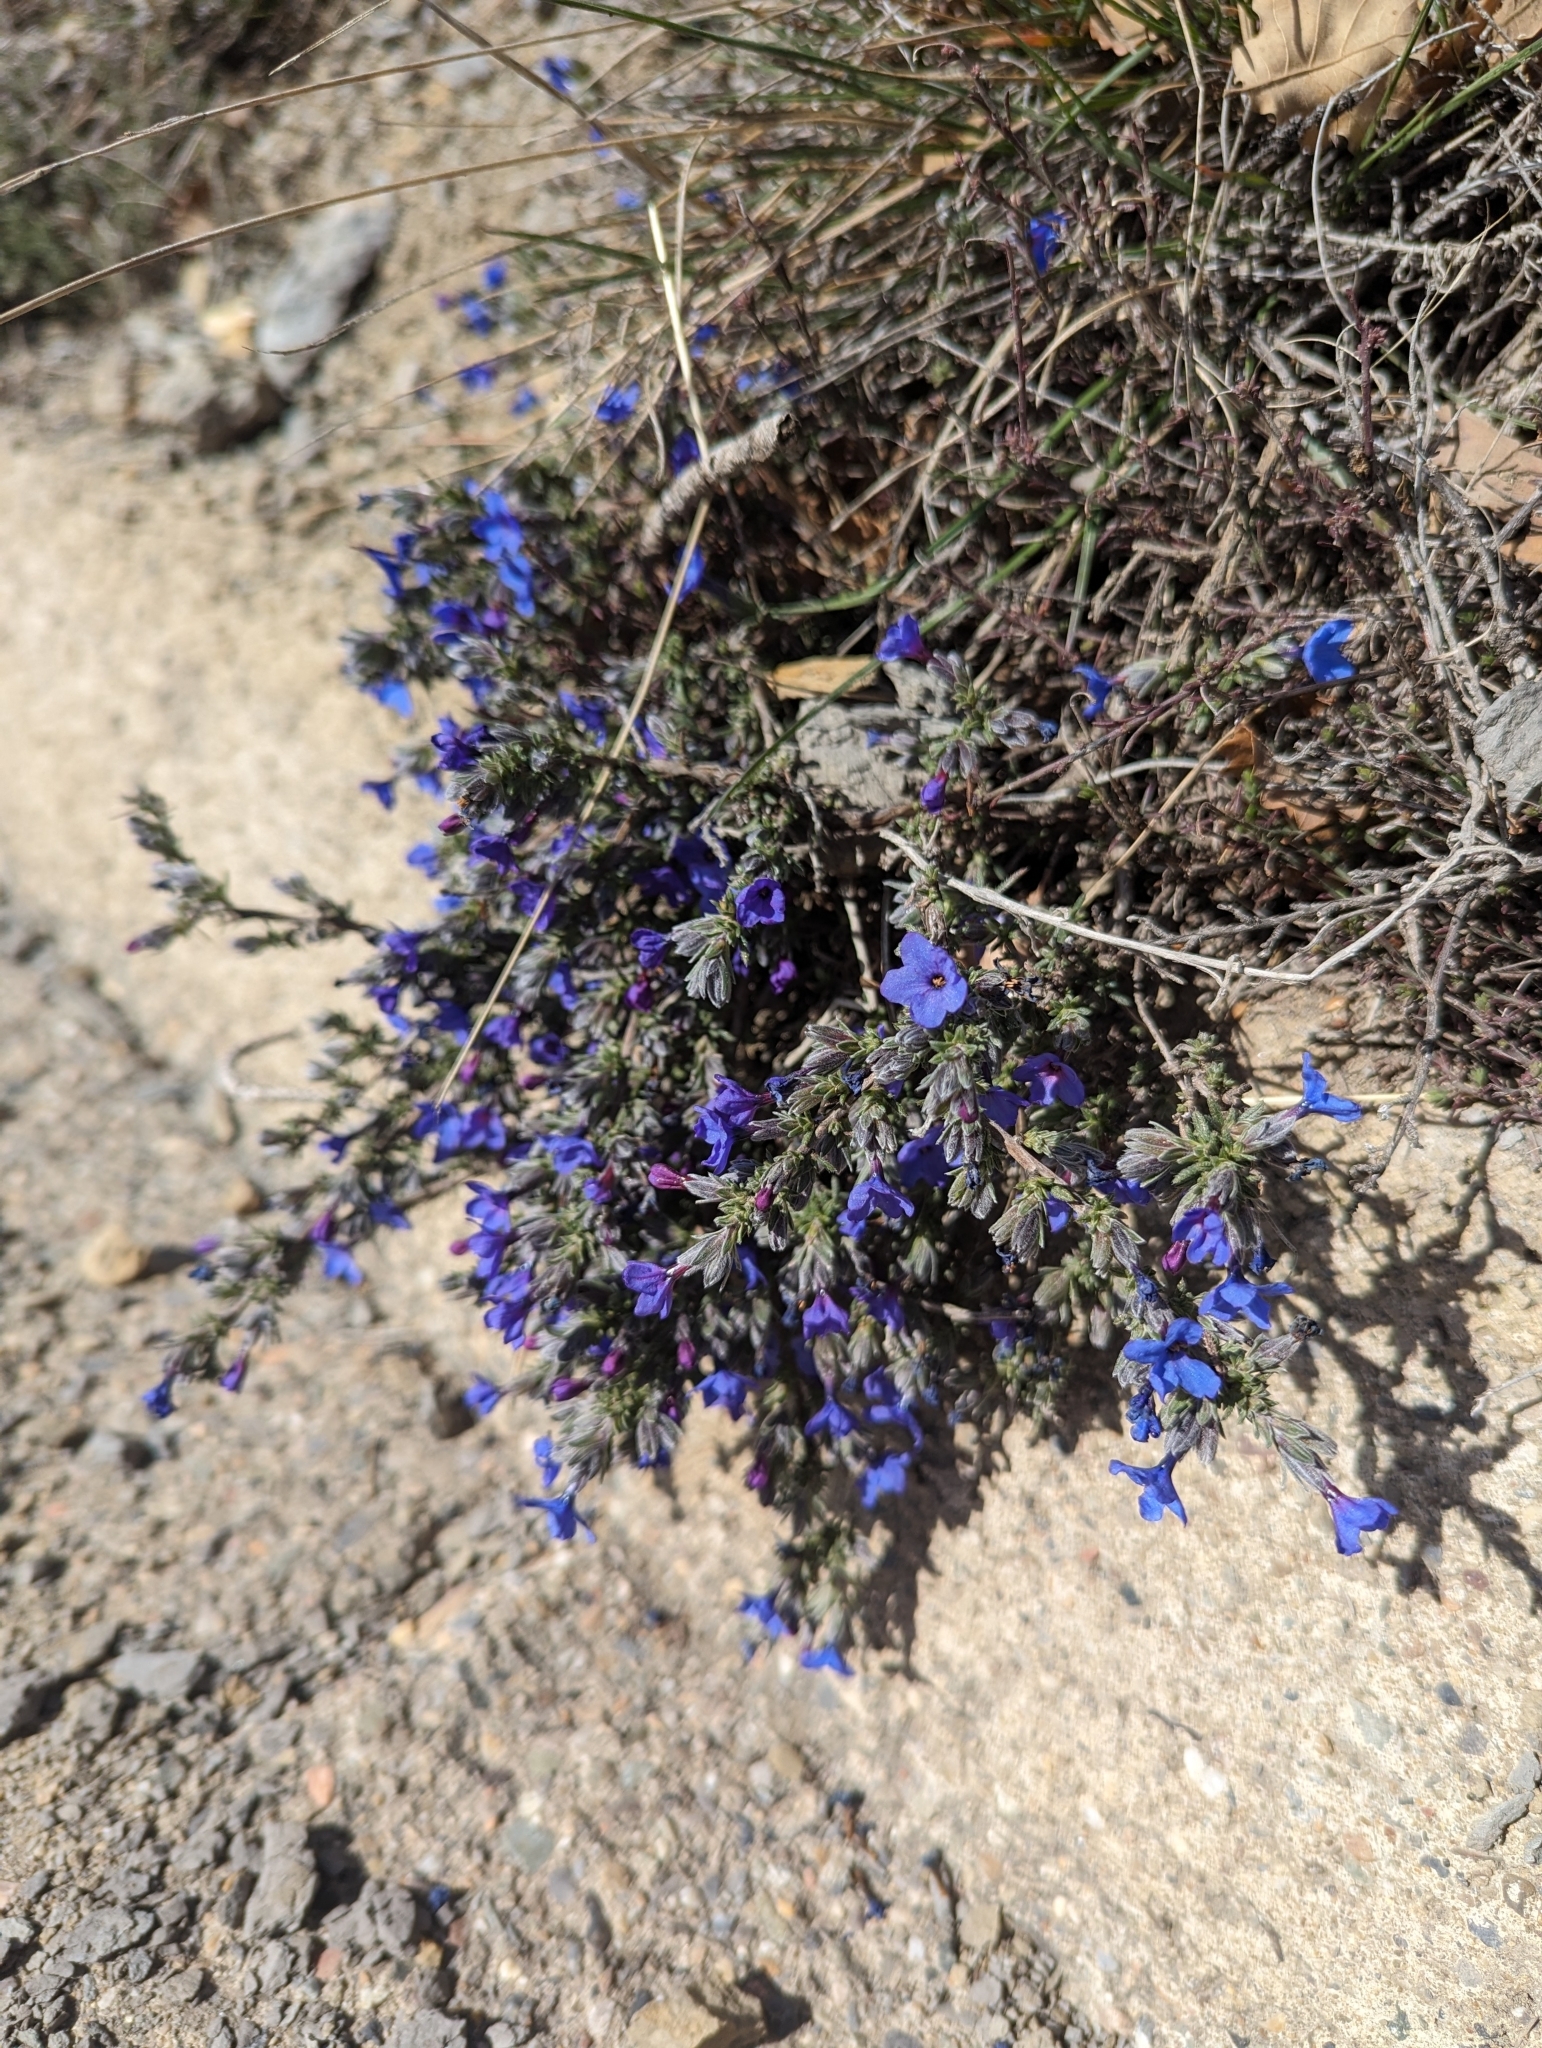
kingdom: Plantae
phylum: Tracheophyta
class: Magnoliopsida
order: Boraginales
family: Boraginaceae
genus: Lithodora
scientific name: Lithodora fruticosa
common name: Shrubby gromwell
